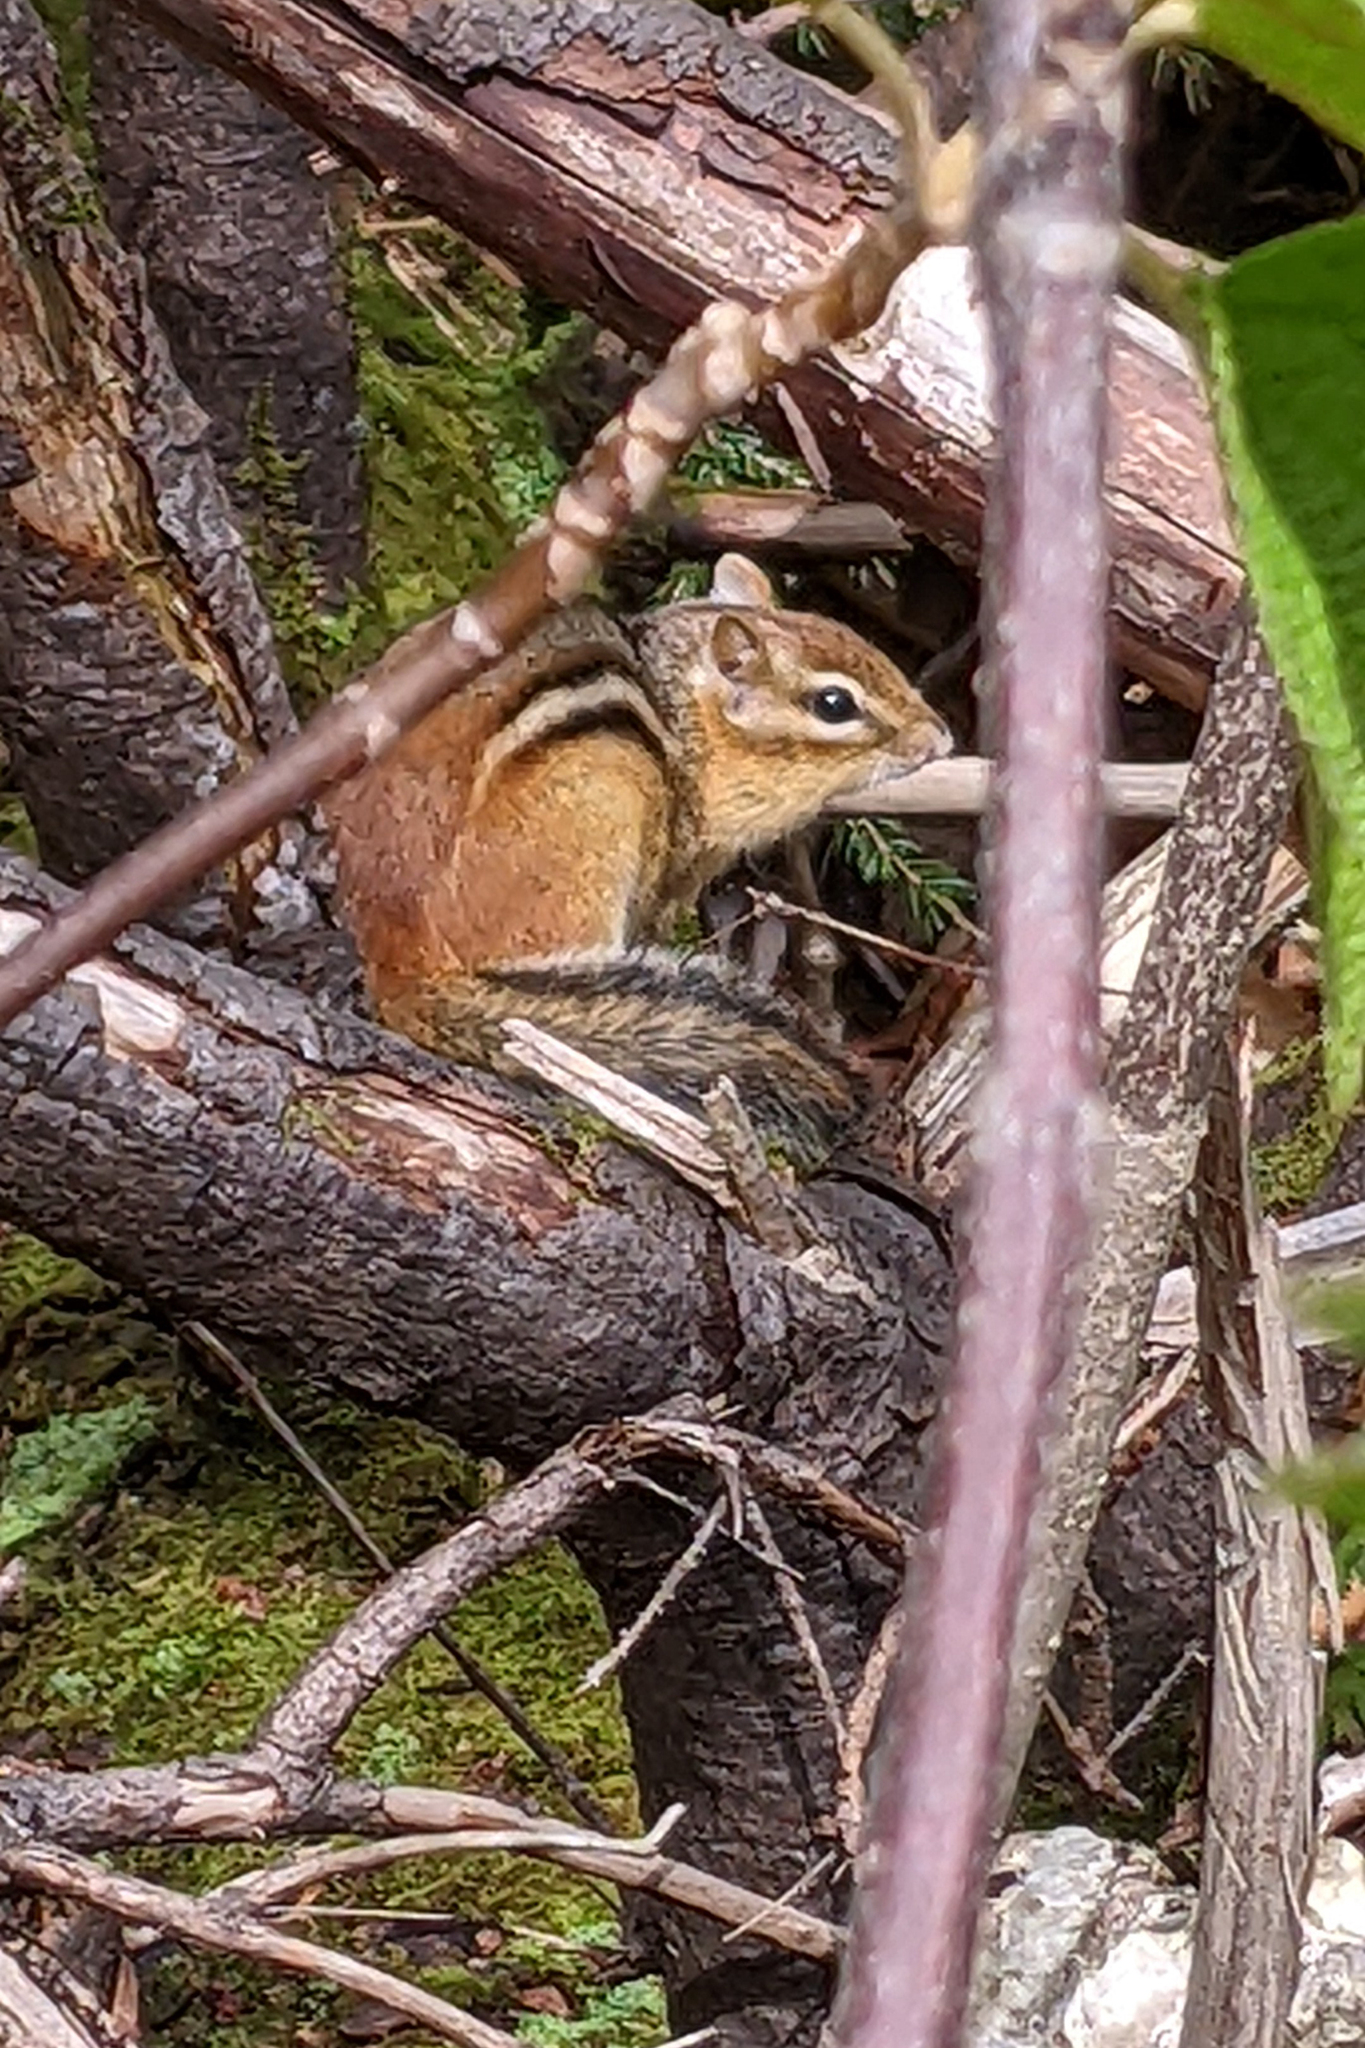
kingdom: Animalia
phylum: Chordata
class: Mammalia
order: Rodentia
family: Sciuridae
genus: Tamias
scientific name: Tamias striatus
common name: Eastern chipmunk
